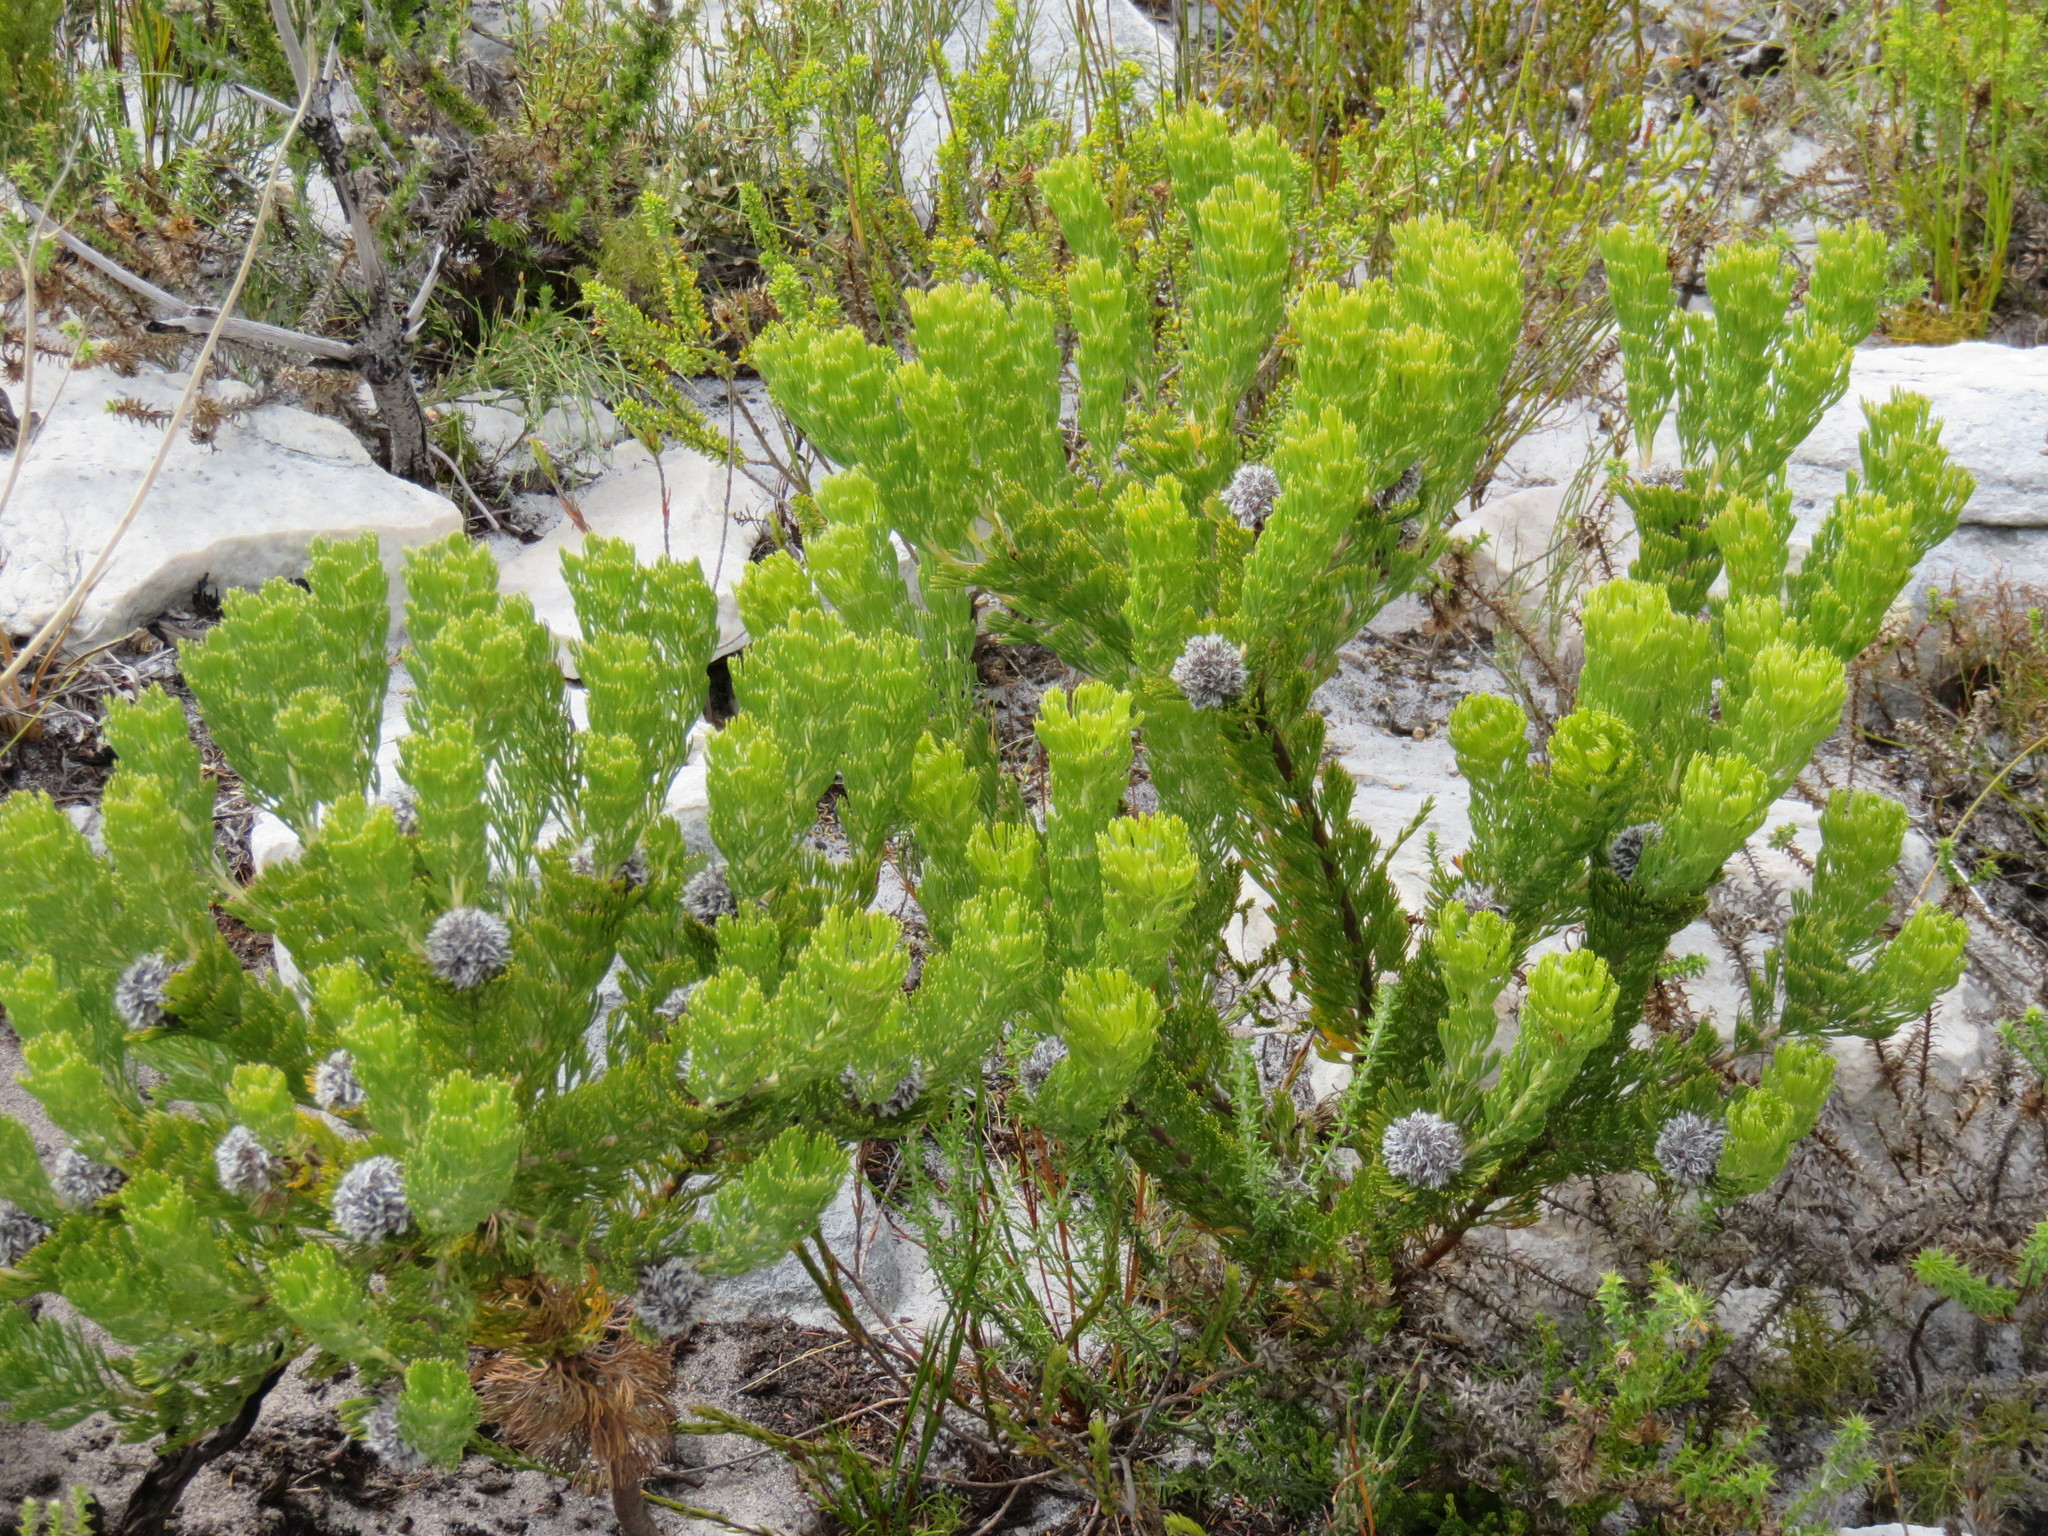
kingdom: Plantae
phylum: Tracheophyta
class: Magnoliopsida
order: Proteales
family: Proteaceae
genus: Serruria
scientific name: Serruria villosa
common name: Golden spiderhead
